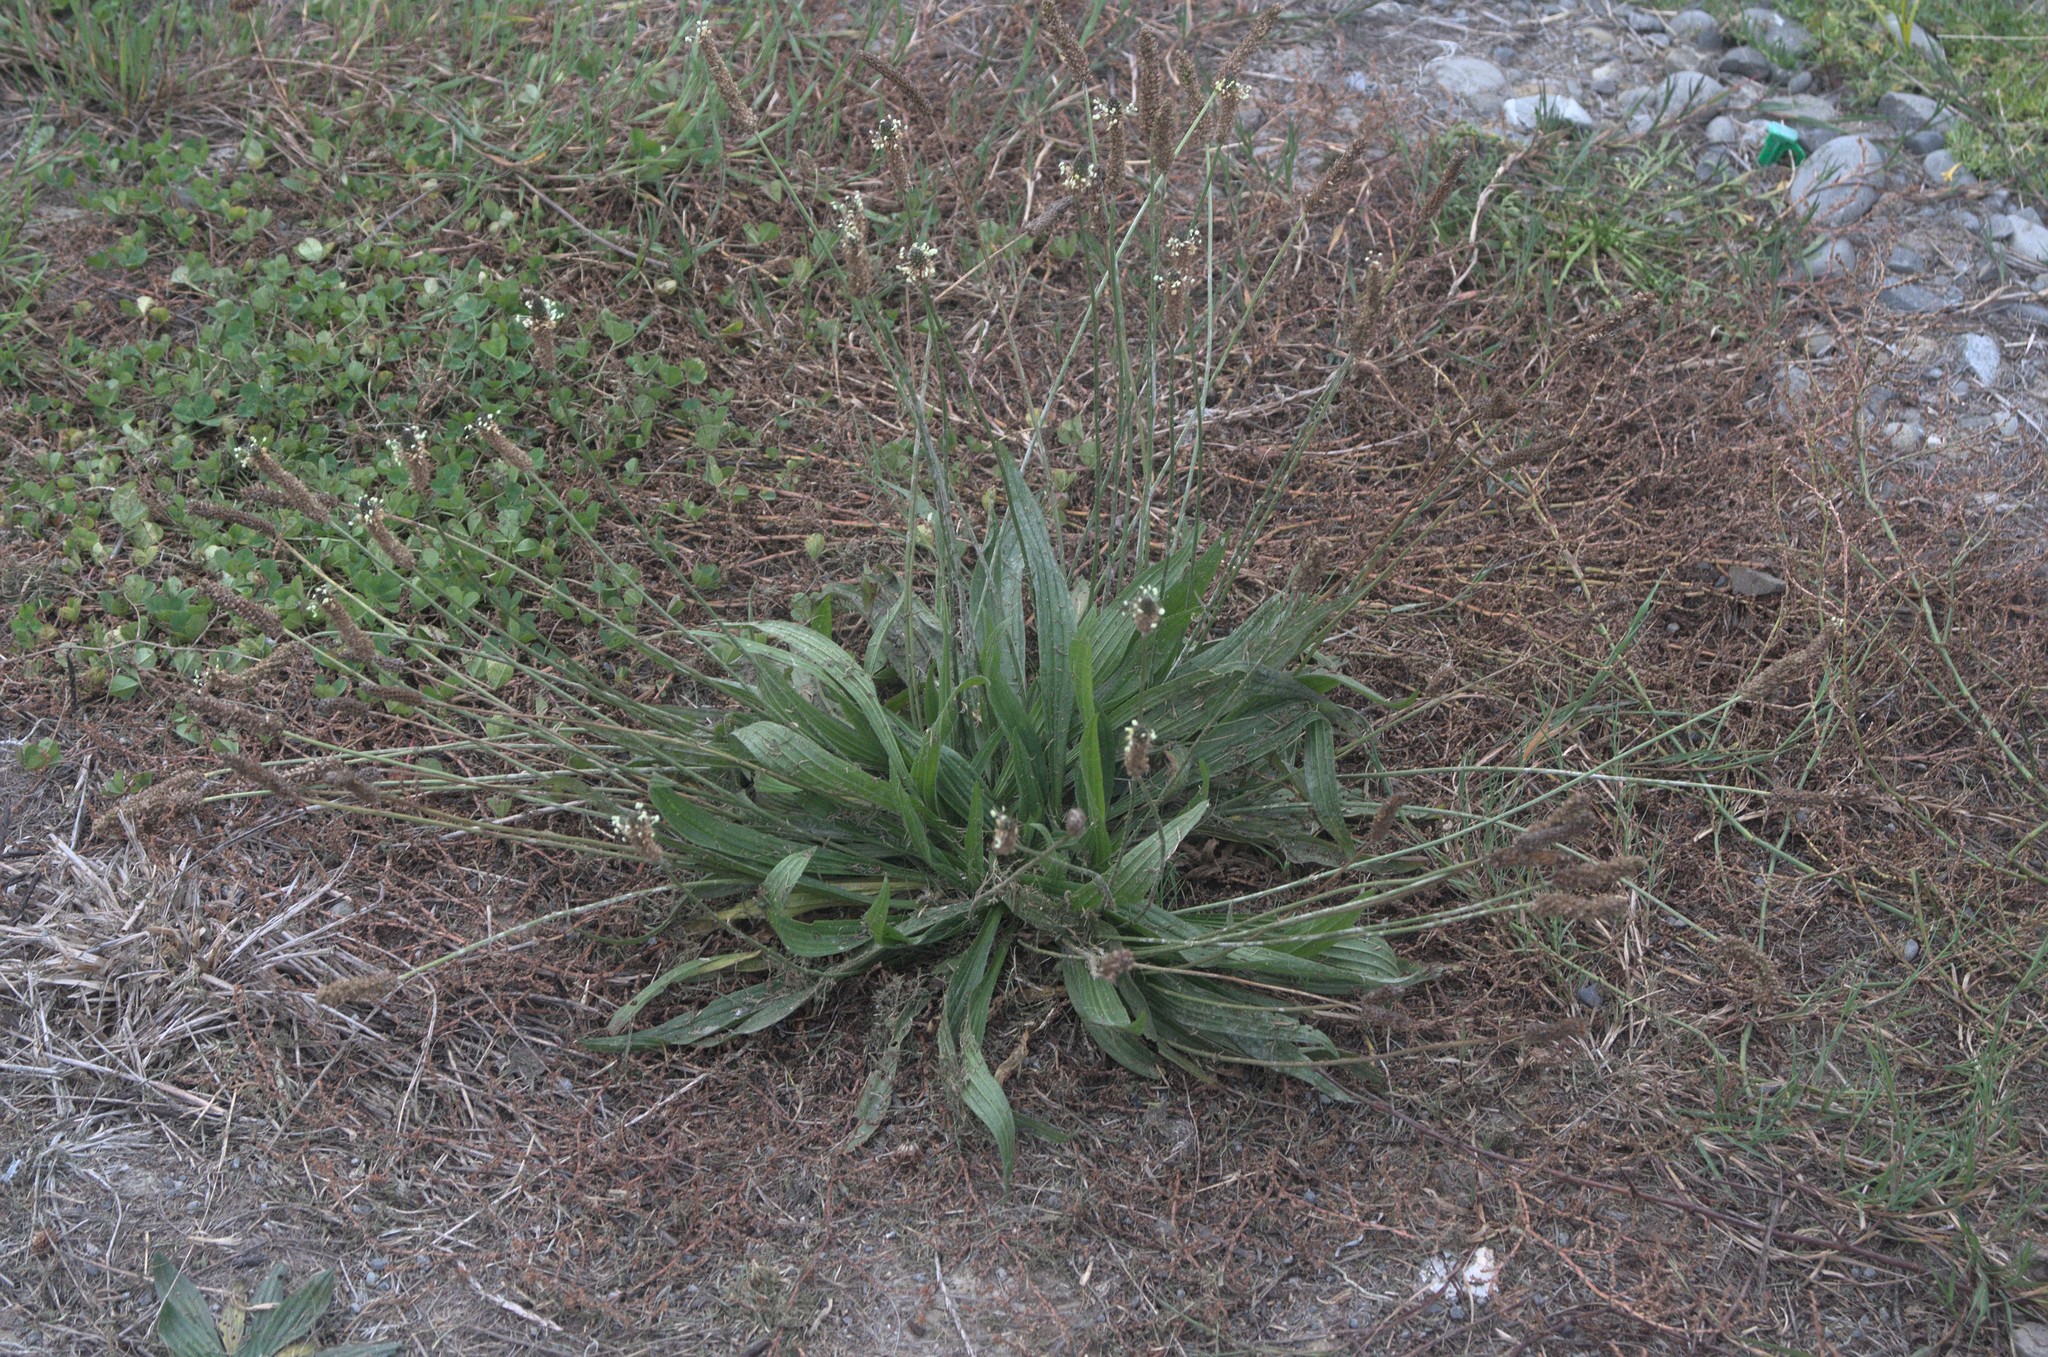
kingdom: Plantae
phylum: Tracheophyta
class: Magnoliopsida
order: Lamiales
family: Plantaginaceae
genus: Plantago
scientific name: Plantago lanceolata
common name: Ribwort plantain
